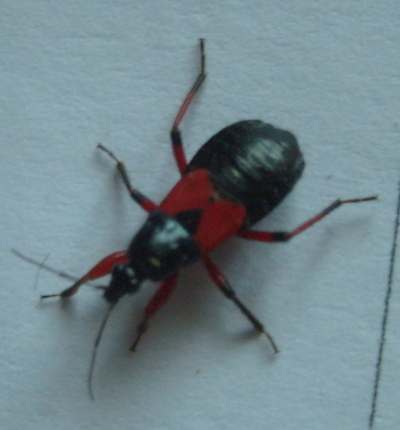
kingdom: Animalia
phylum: Arthropoda
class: Insecta
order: Hemiptera
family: Nabidae
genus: Prostemma
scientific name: Prostemma aeneicolle
